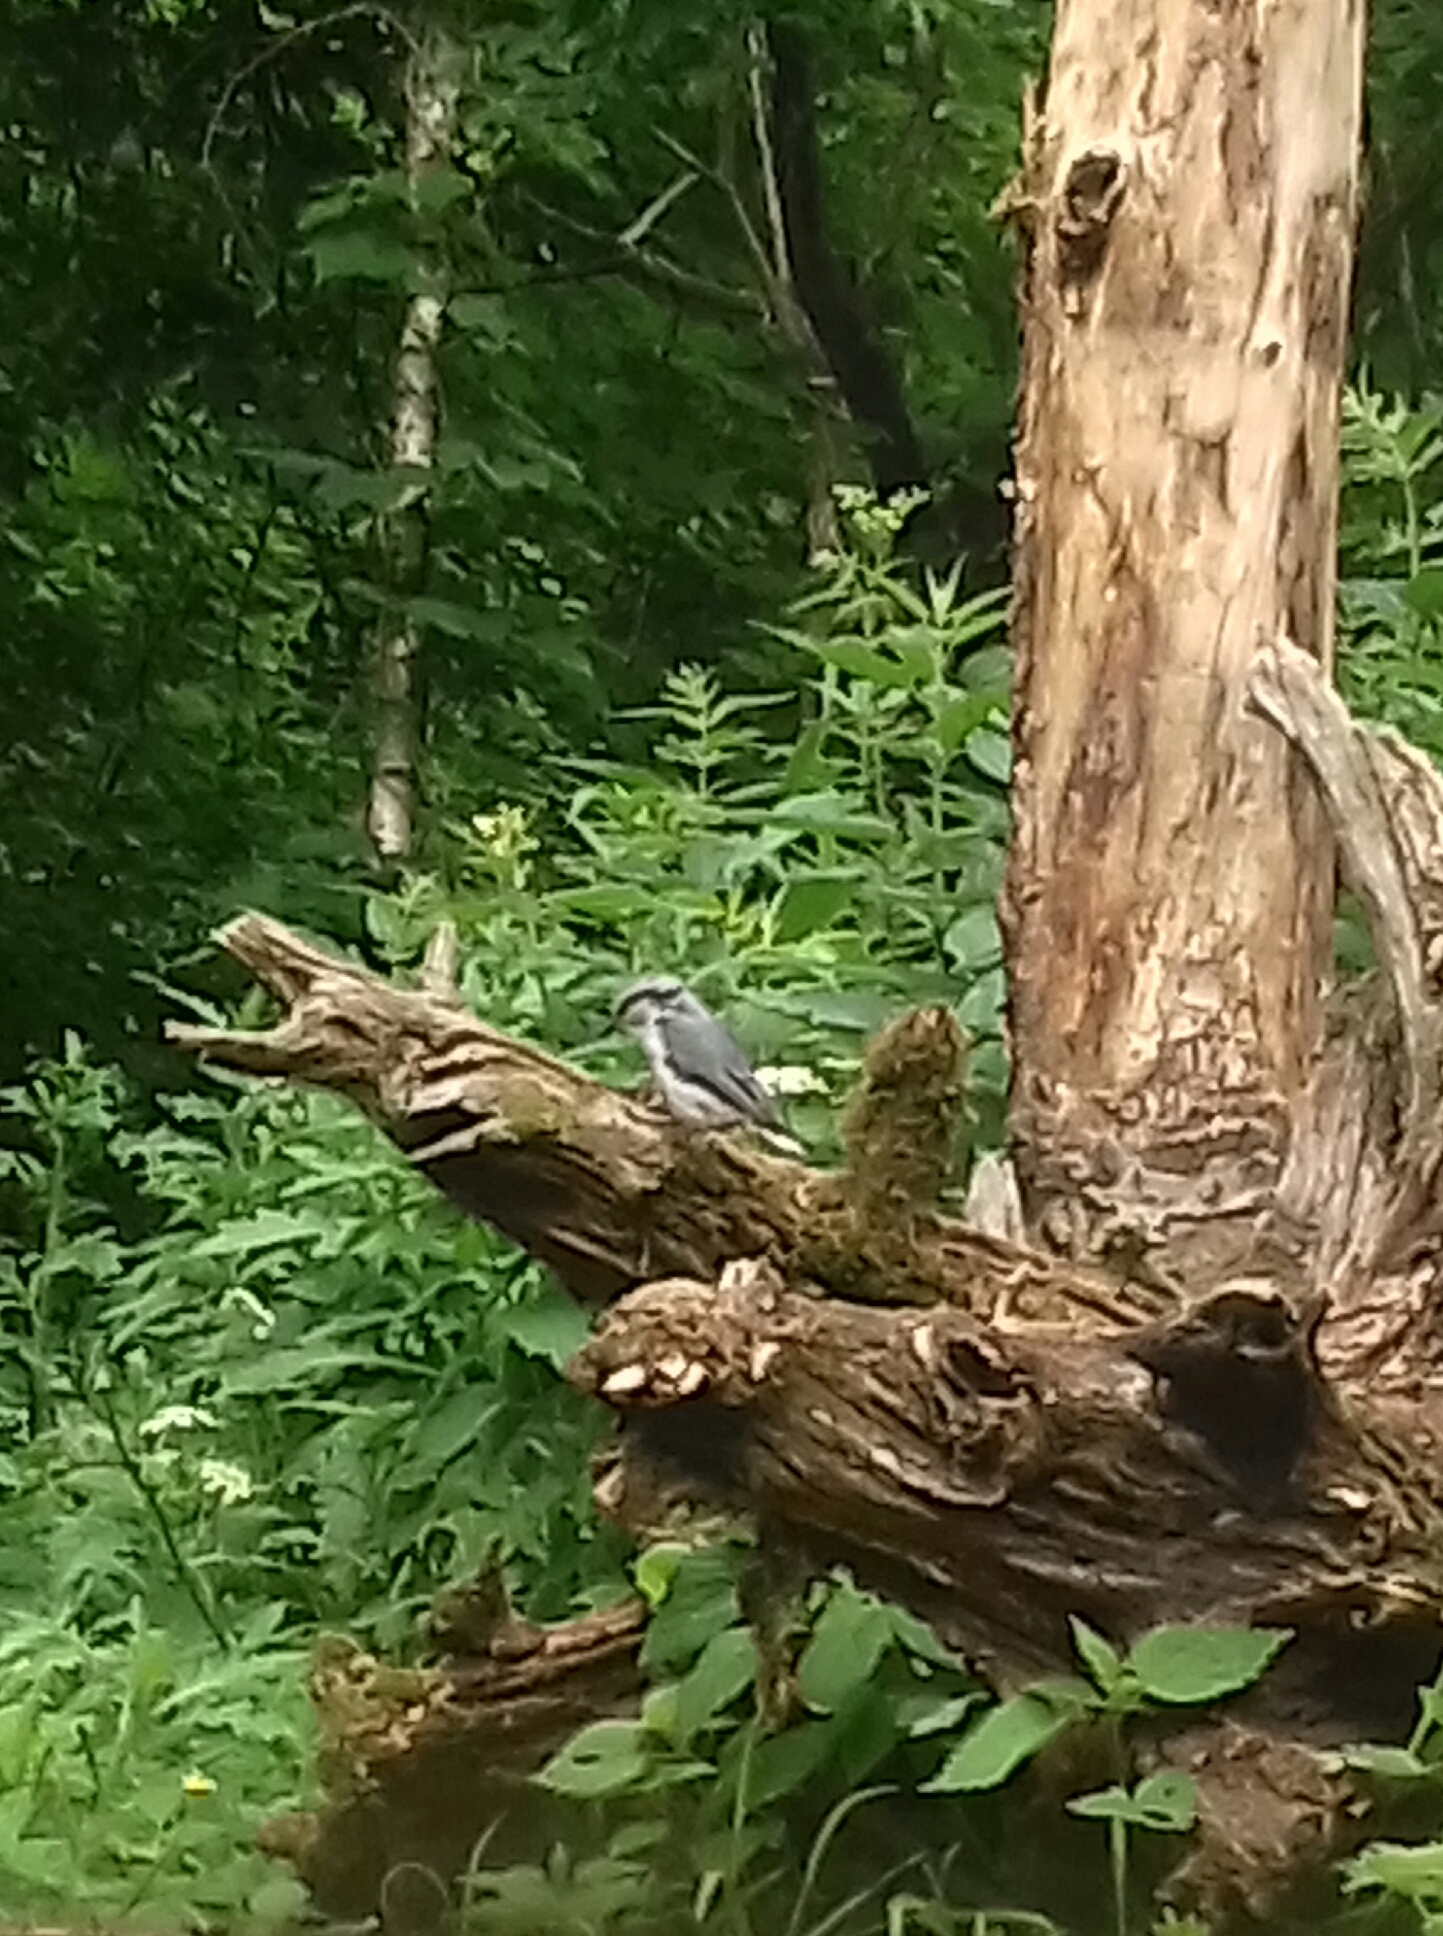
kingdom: Animalia
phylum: Chordata
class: Aves
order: Passeriformes
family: Sittidae
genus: Sitta
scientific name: Sitta europaea
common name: Eurasian nuthatch
